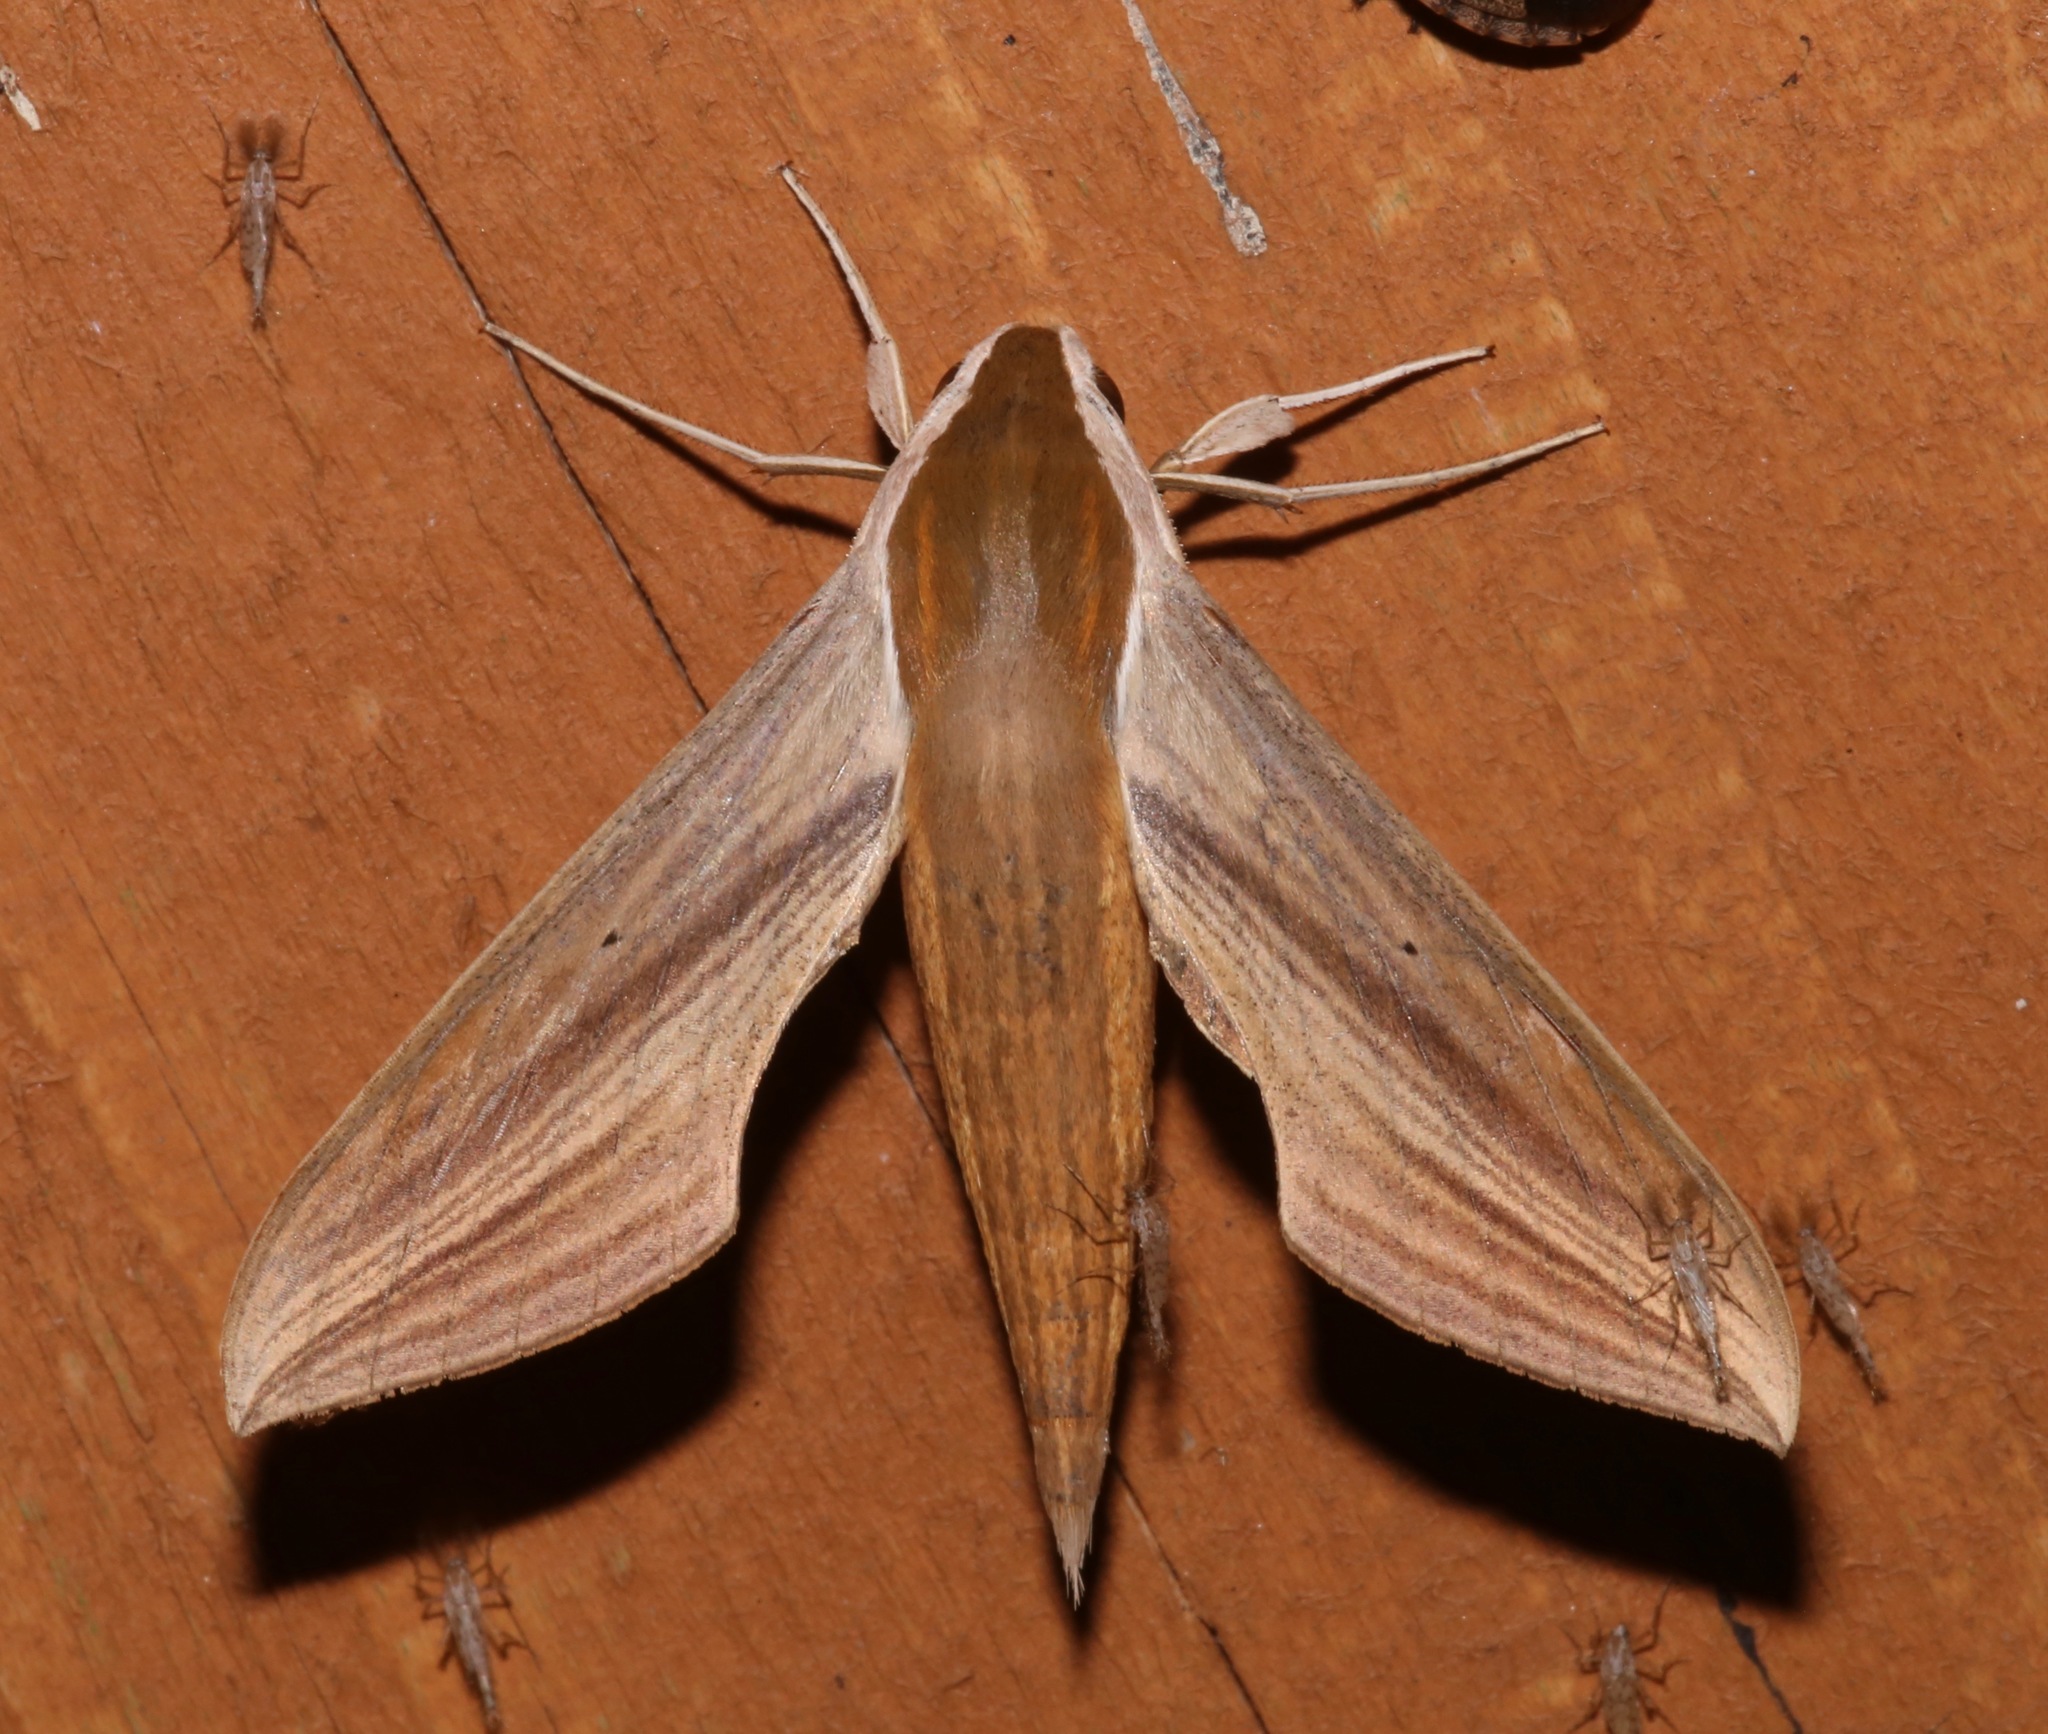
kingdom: Animalia
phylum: Arthropoda
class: Insecta
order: Lepidoptera
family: Sphingidae
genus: Xylophanes
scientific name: Xylophanes tersa
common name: Tersa sphinx
